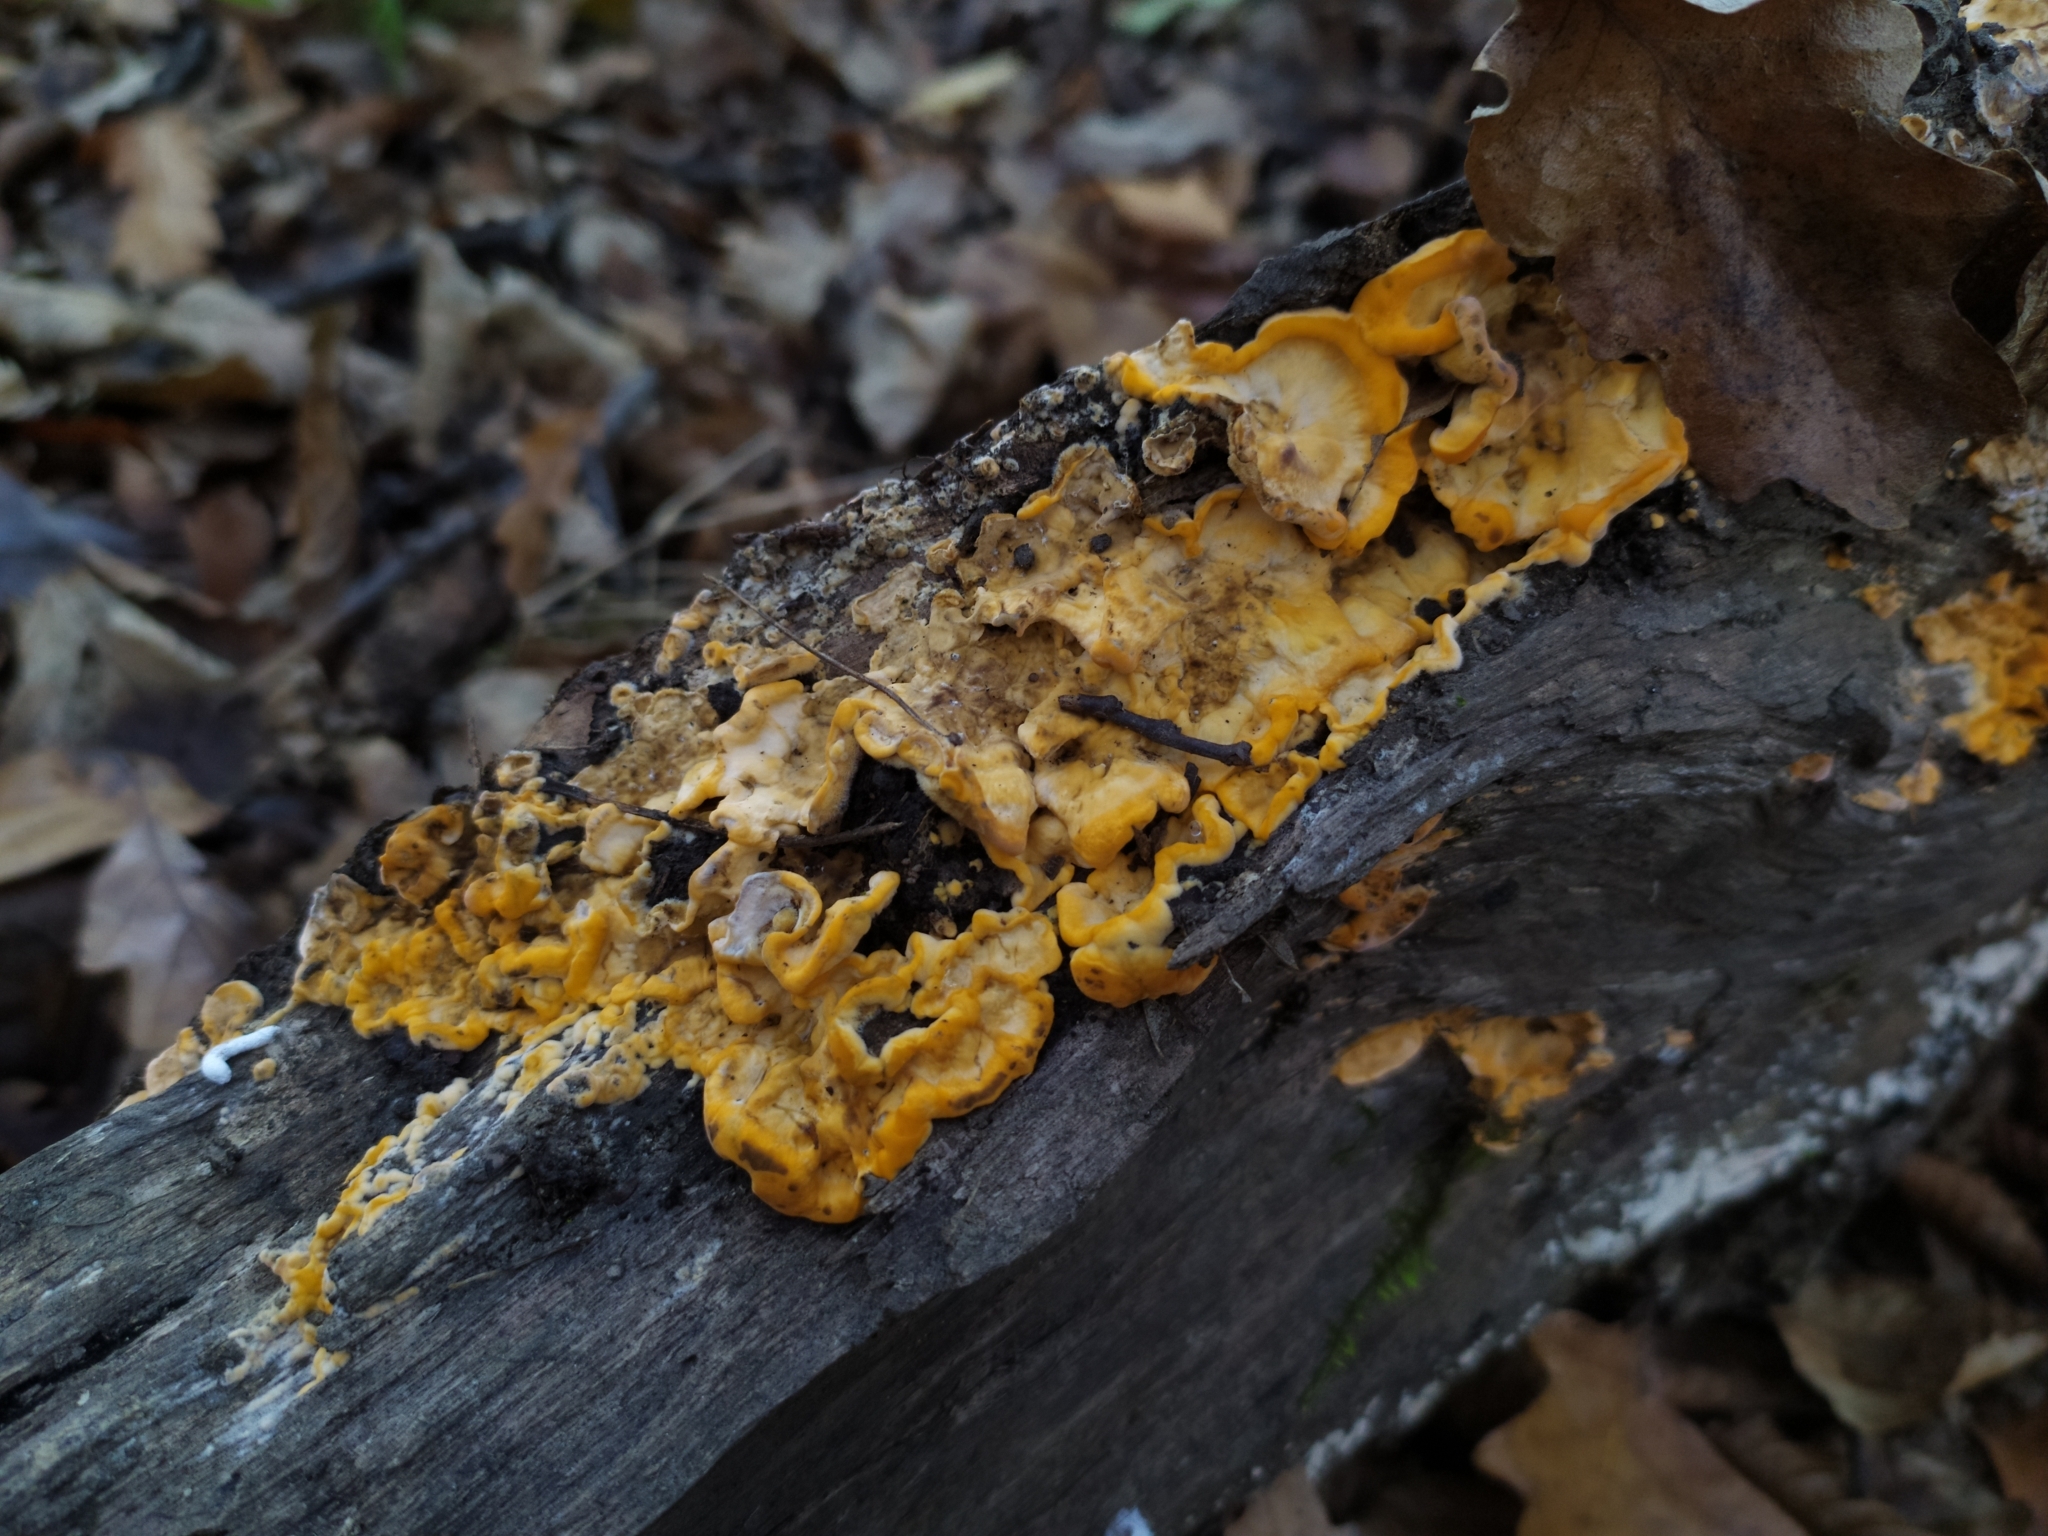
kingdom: Fungi
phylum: Basidiomycota
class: Agaricomycetes
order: Russulales
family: Stereaceae
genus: Stereum
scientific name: Stereum hirsutum
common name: Hairy curtain crust
